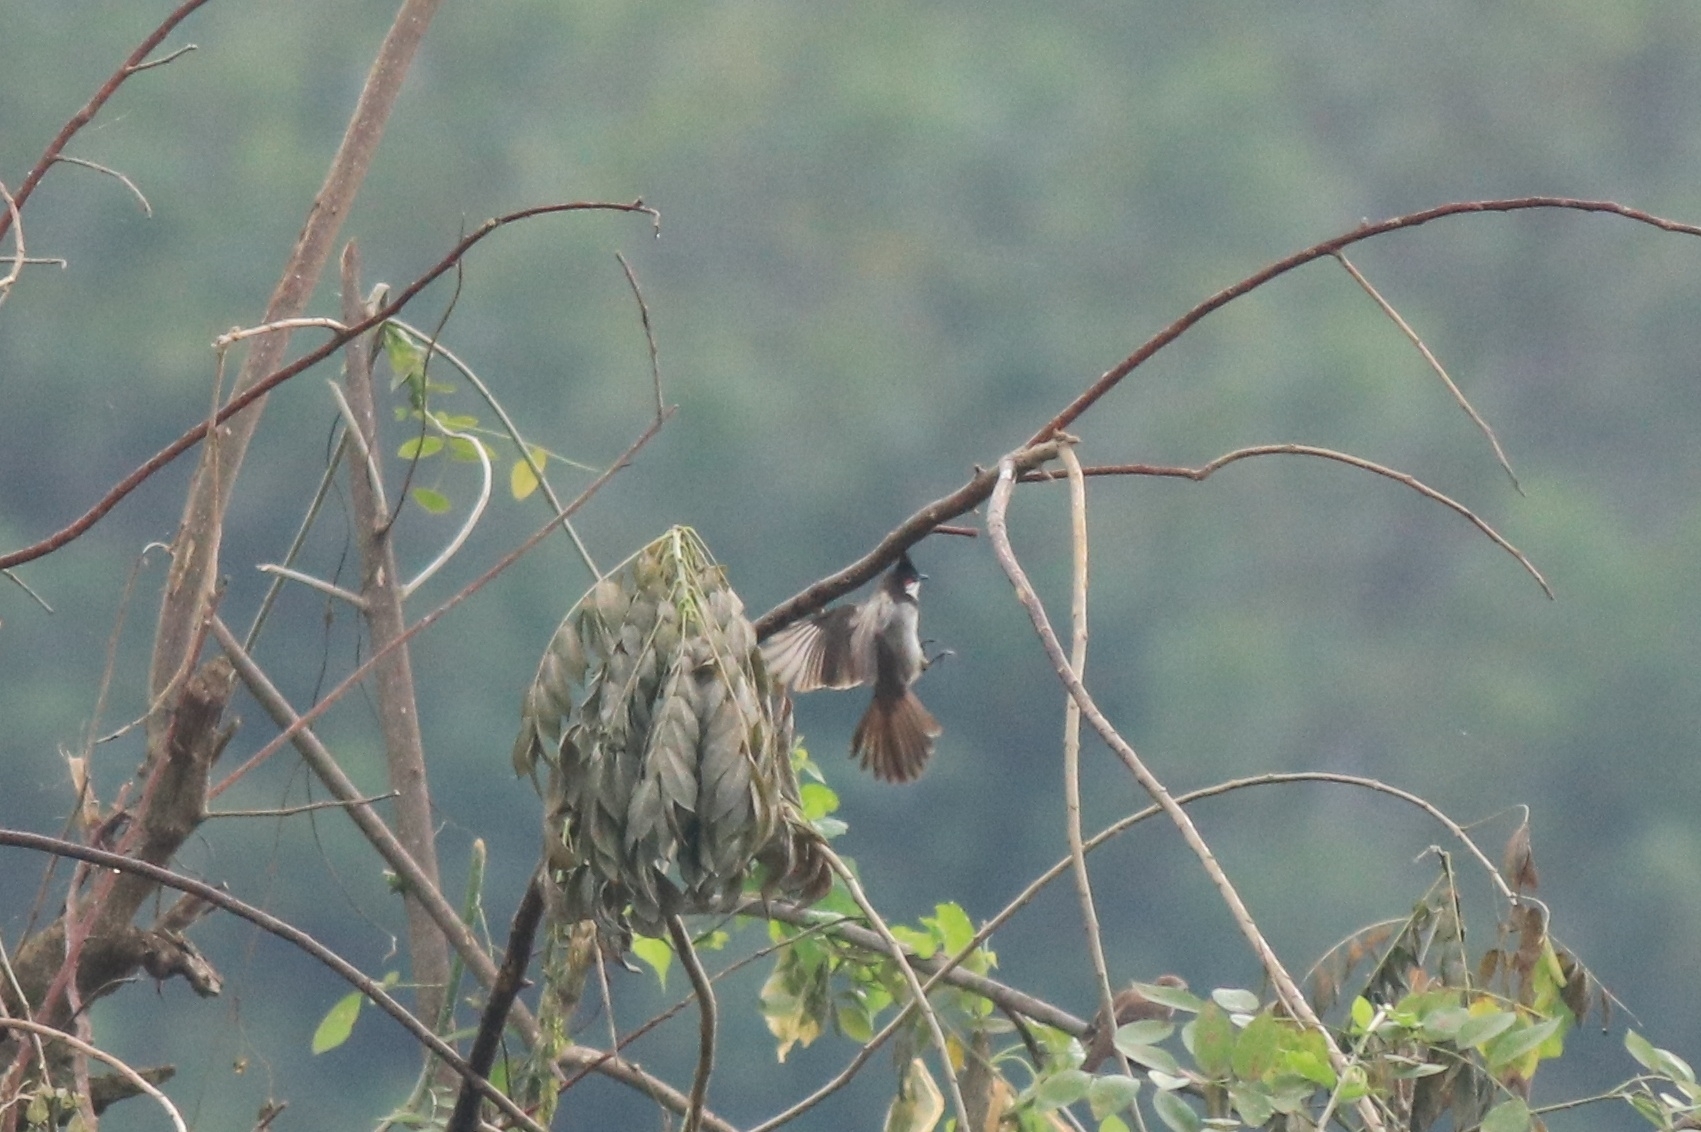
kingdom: Animalia
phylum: Chordata
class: Aves
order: Passeriformes
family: Pycnonotidae
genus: Pycnonotus
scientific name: Pycnonotus jocosus
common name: Red-whiskered bulbul
